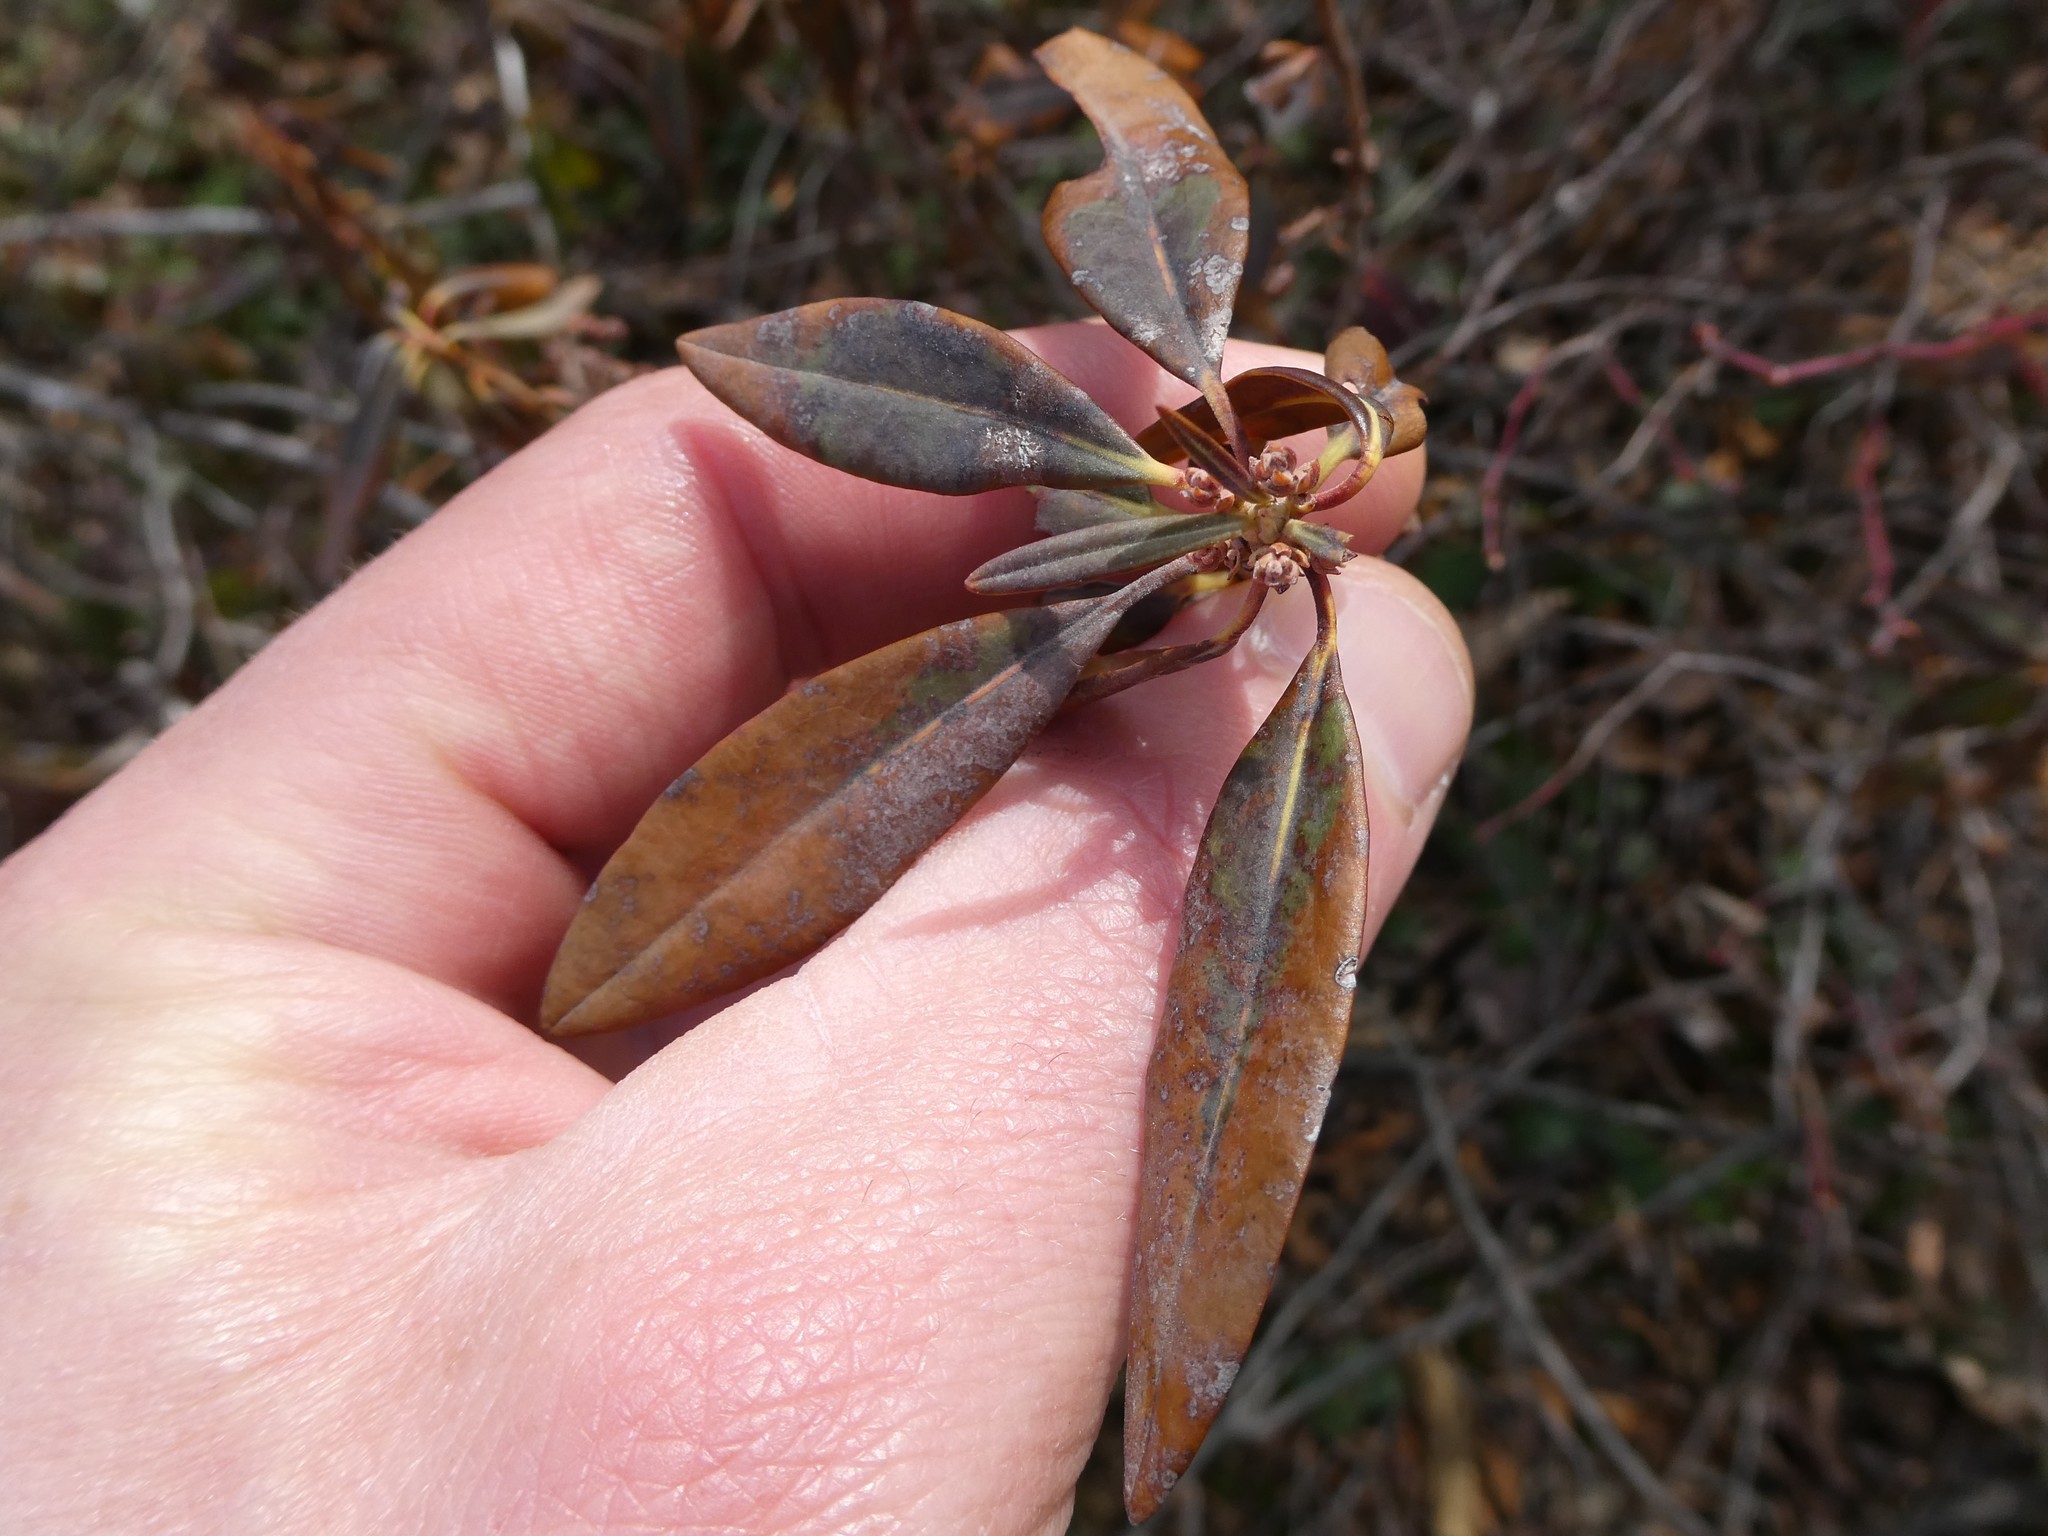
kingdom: Plantae
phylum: Tracheophyta
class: Magnoliopsida
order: Ericales
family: Ericaceae
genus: Kalmia
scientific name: Kalmia angustifolia
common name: Sheep-laurel
